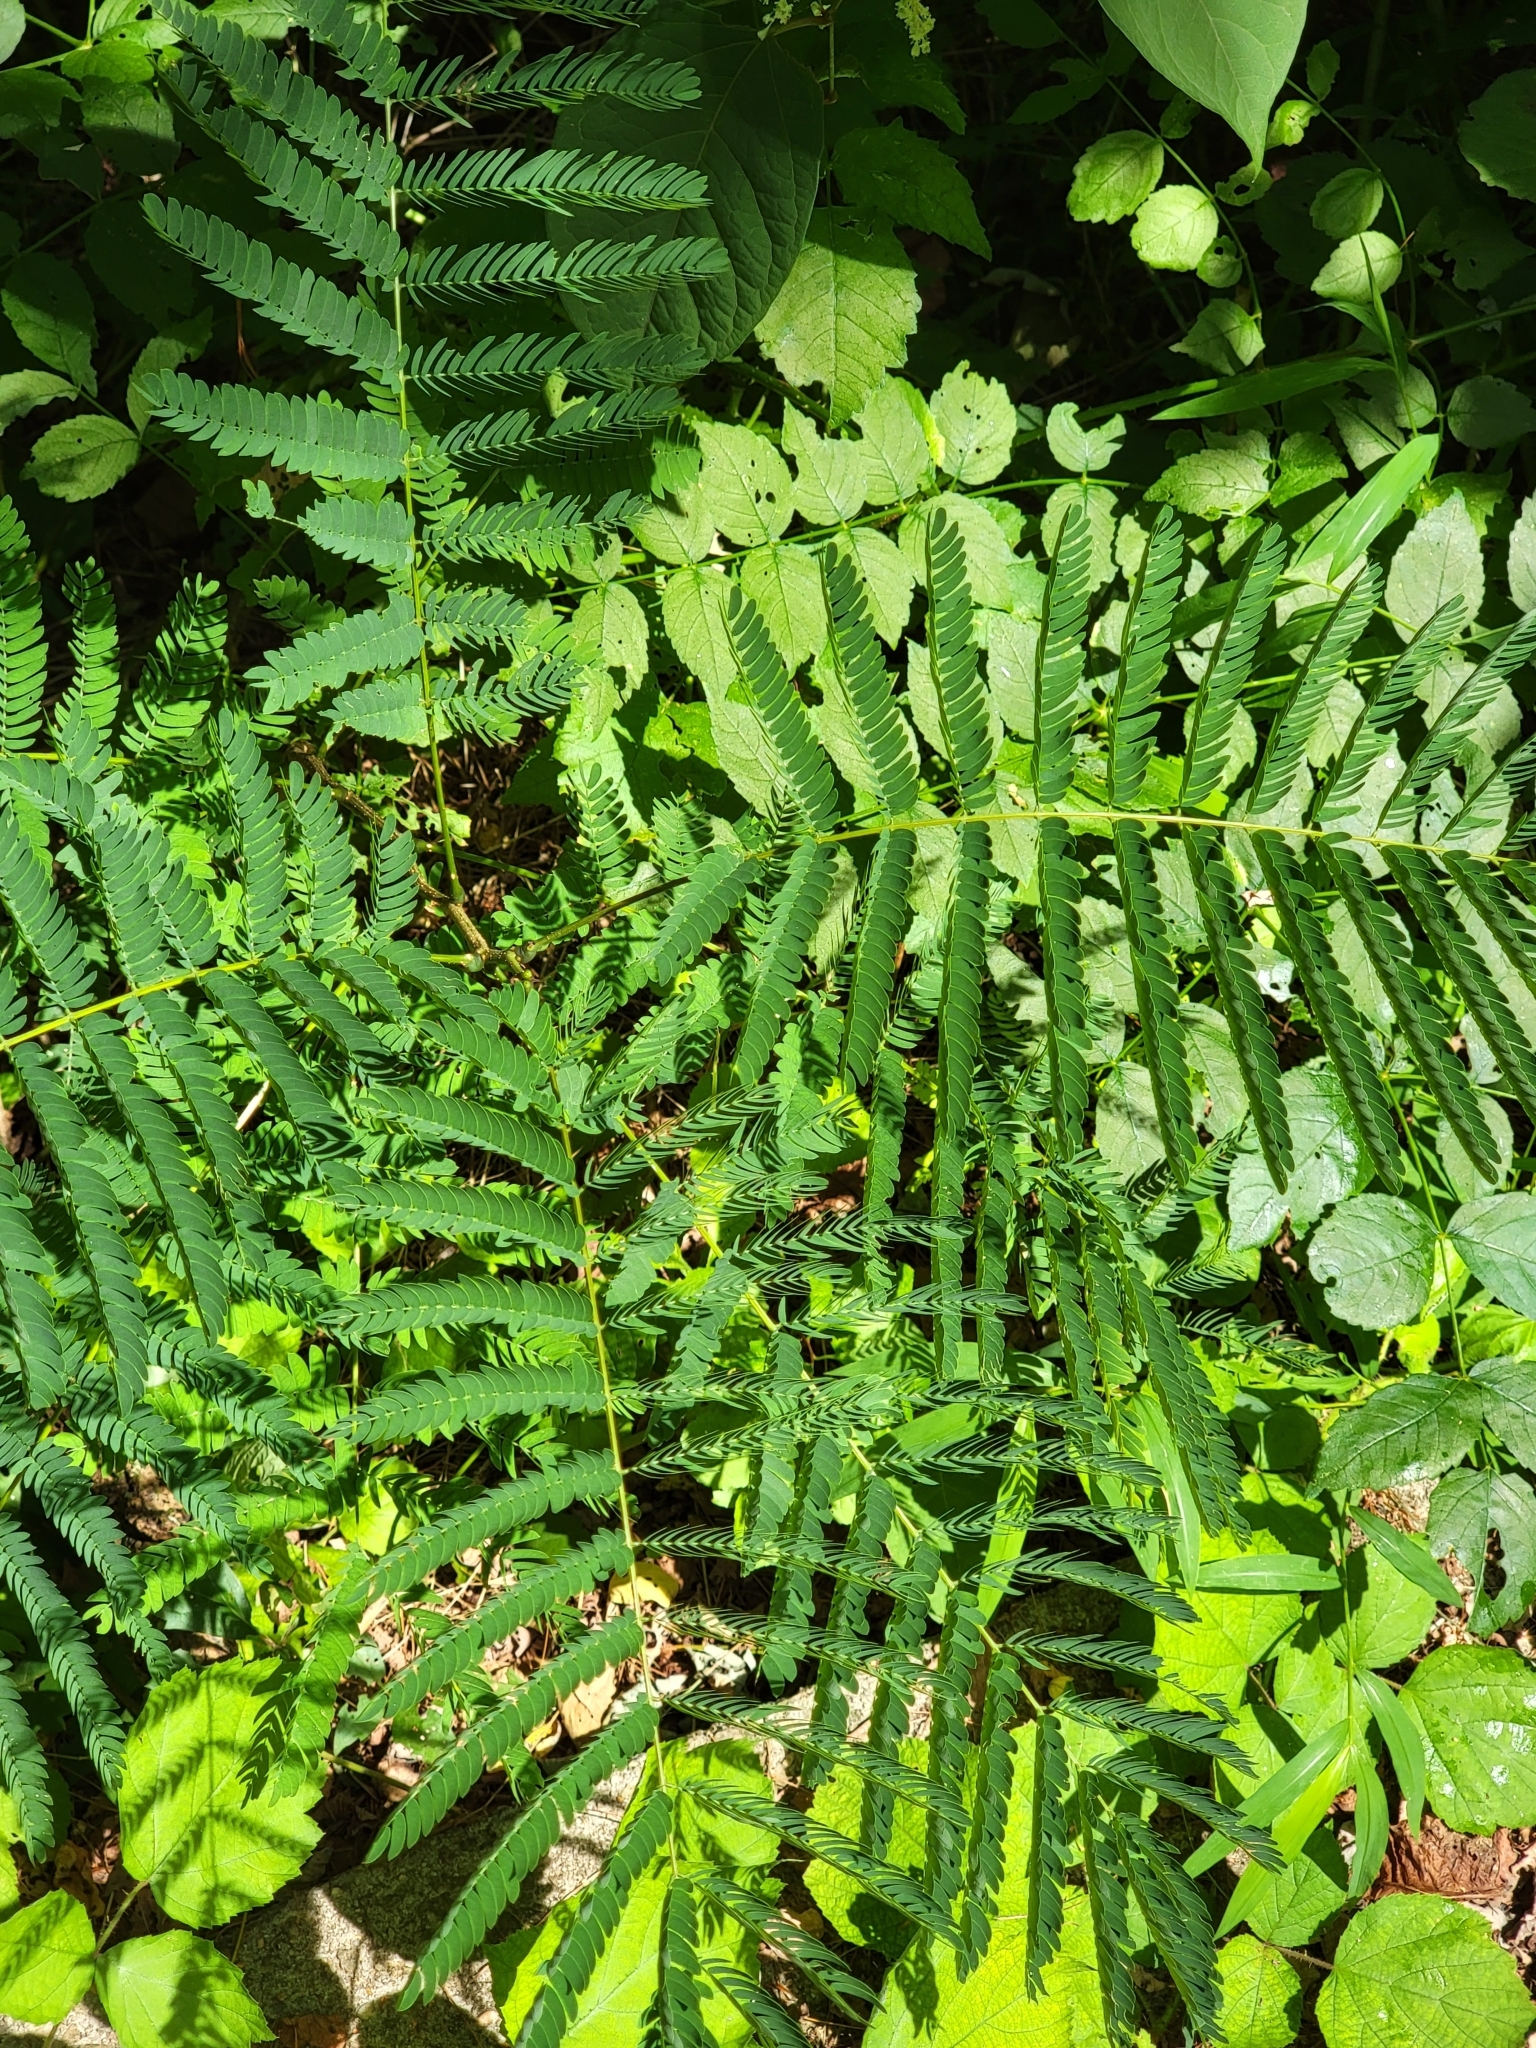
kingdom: Plantae
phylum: Tracheophyta
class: Magnoliopsida
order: Fabales
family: Fabaceae
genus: Albizia
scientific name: Albizia julibrissin
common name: Silktree
